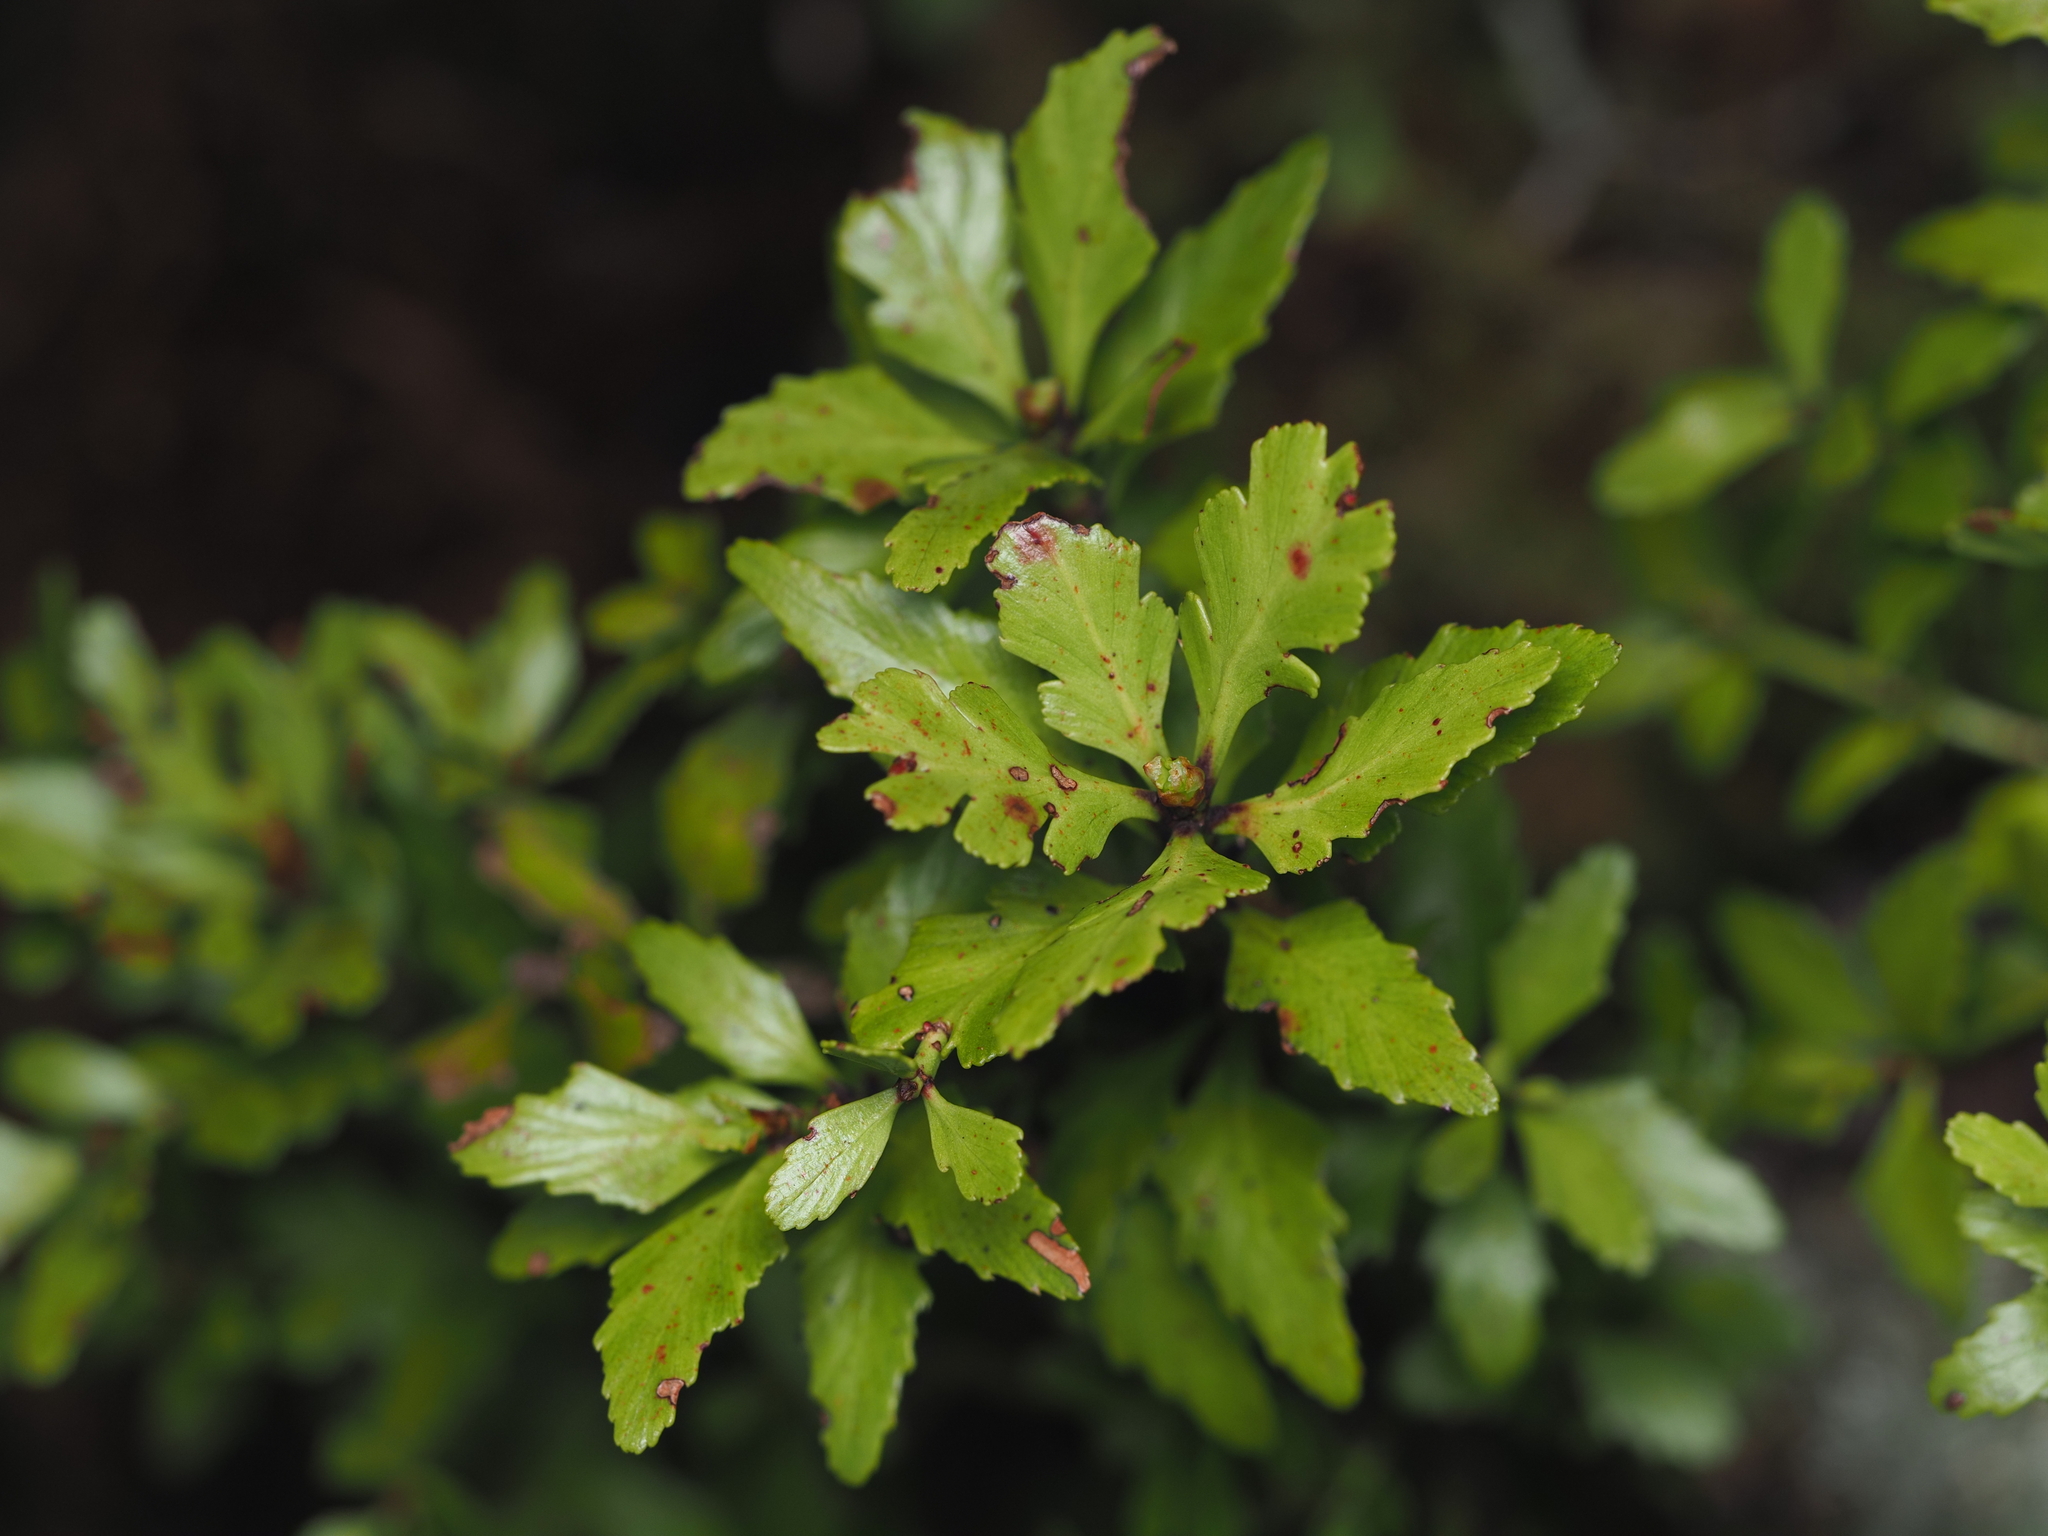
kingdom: Plantae
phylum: Tracheophyta
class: Pinopsida
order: Pinales
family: Phyllocladaceae
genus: Phyllocladus
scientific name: Phyllocladus trichomanoides
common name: Celery pine
